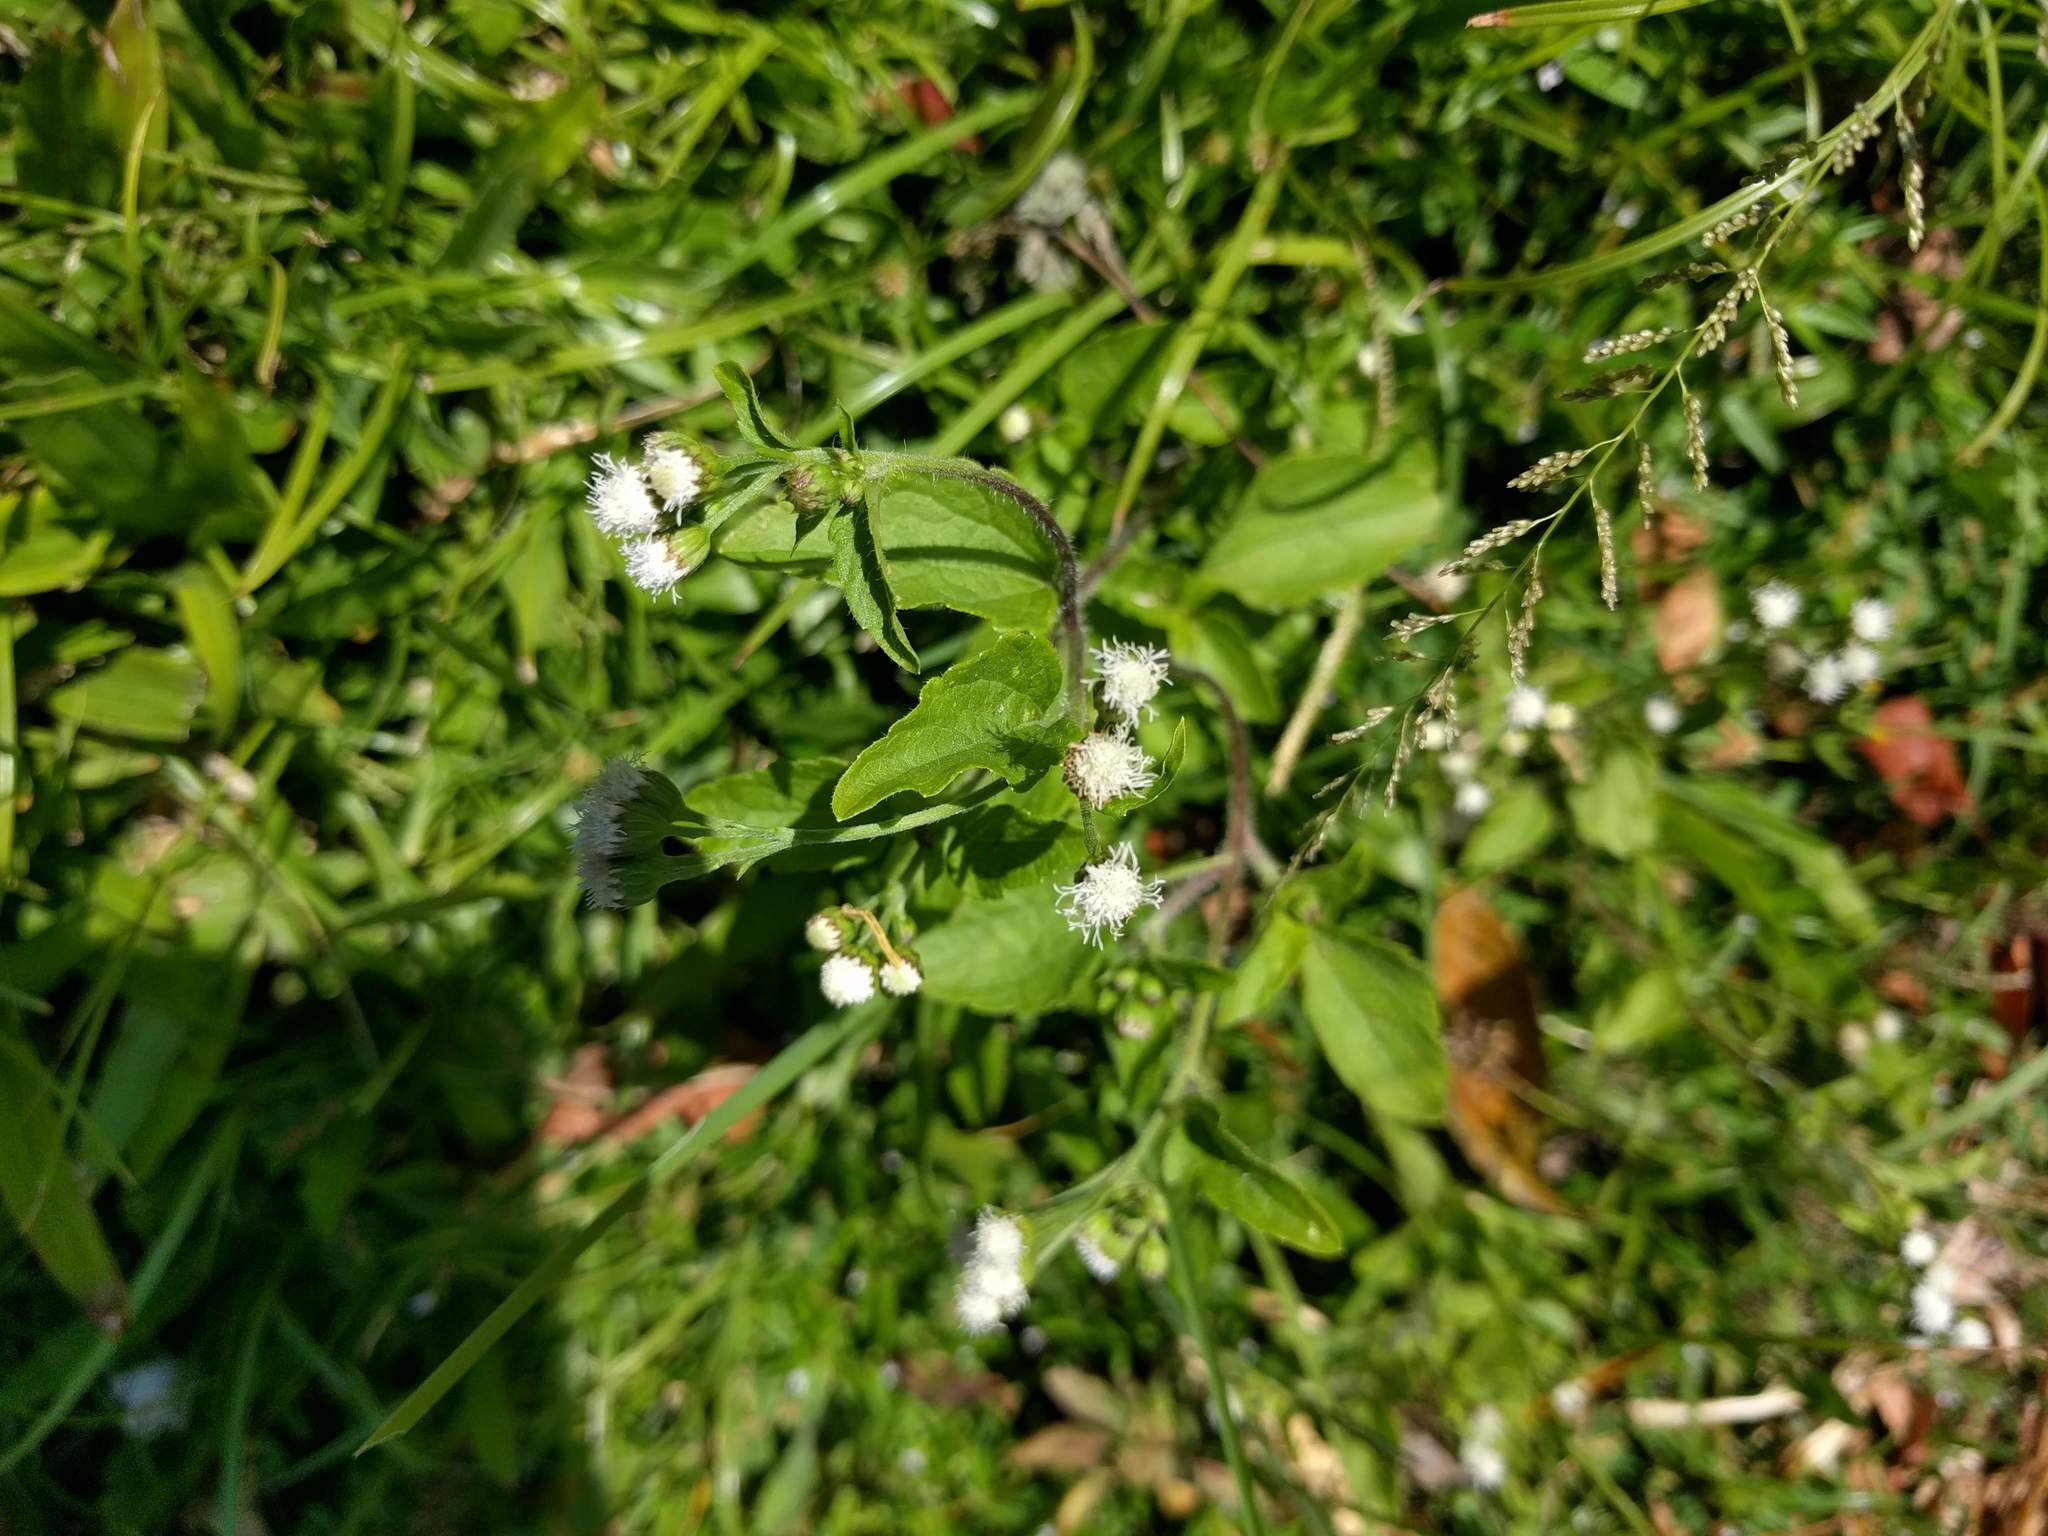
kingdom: Plantae
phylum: Tracheophyta
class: Magnoliopsida
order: Asterales
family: Asteraceae
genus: Ageratum
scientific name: Ageratum conyzoides
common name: Tropical whiteweed
